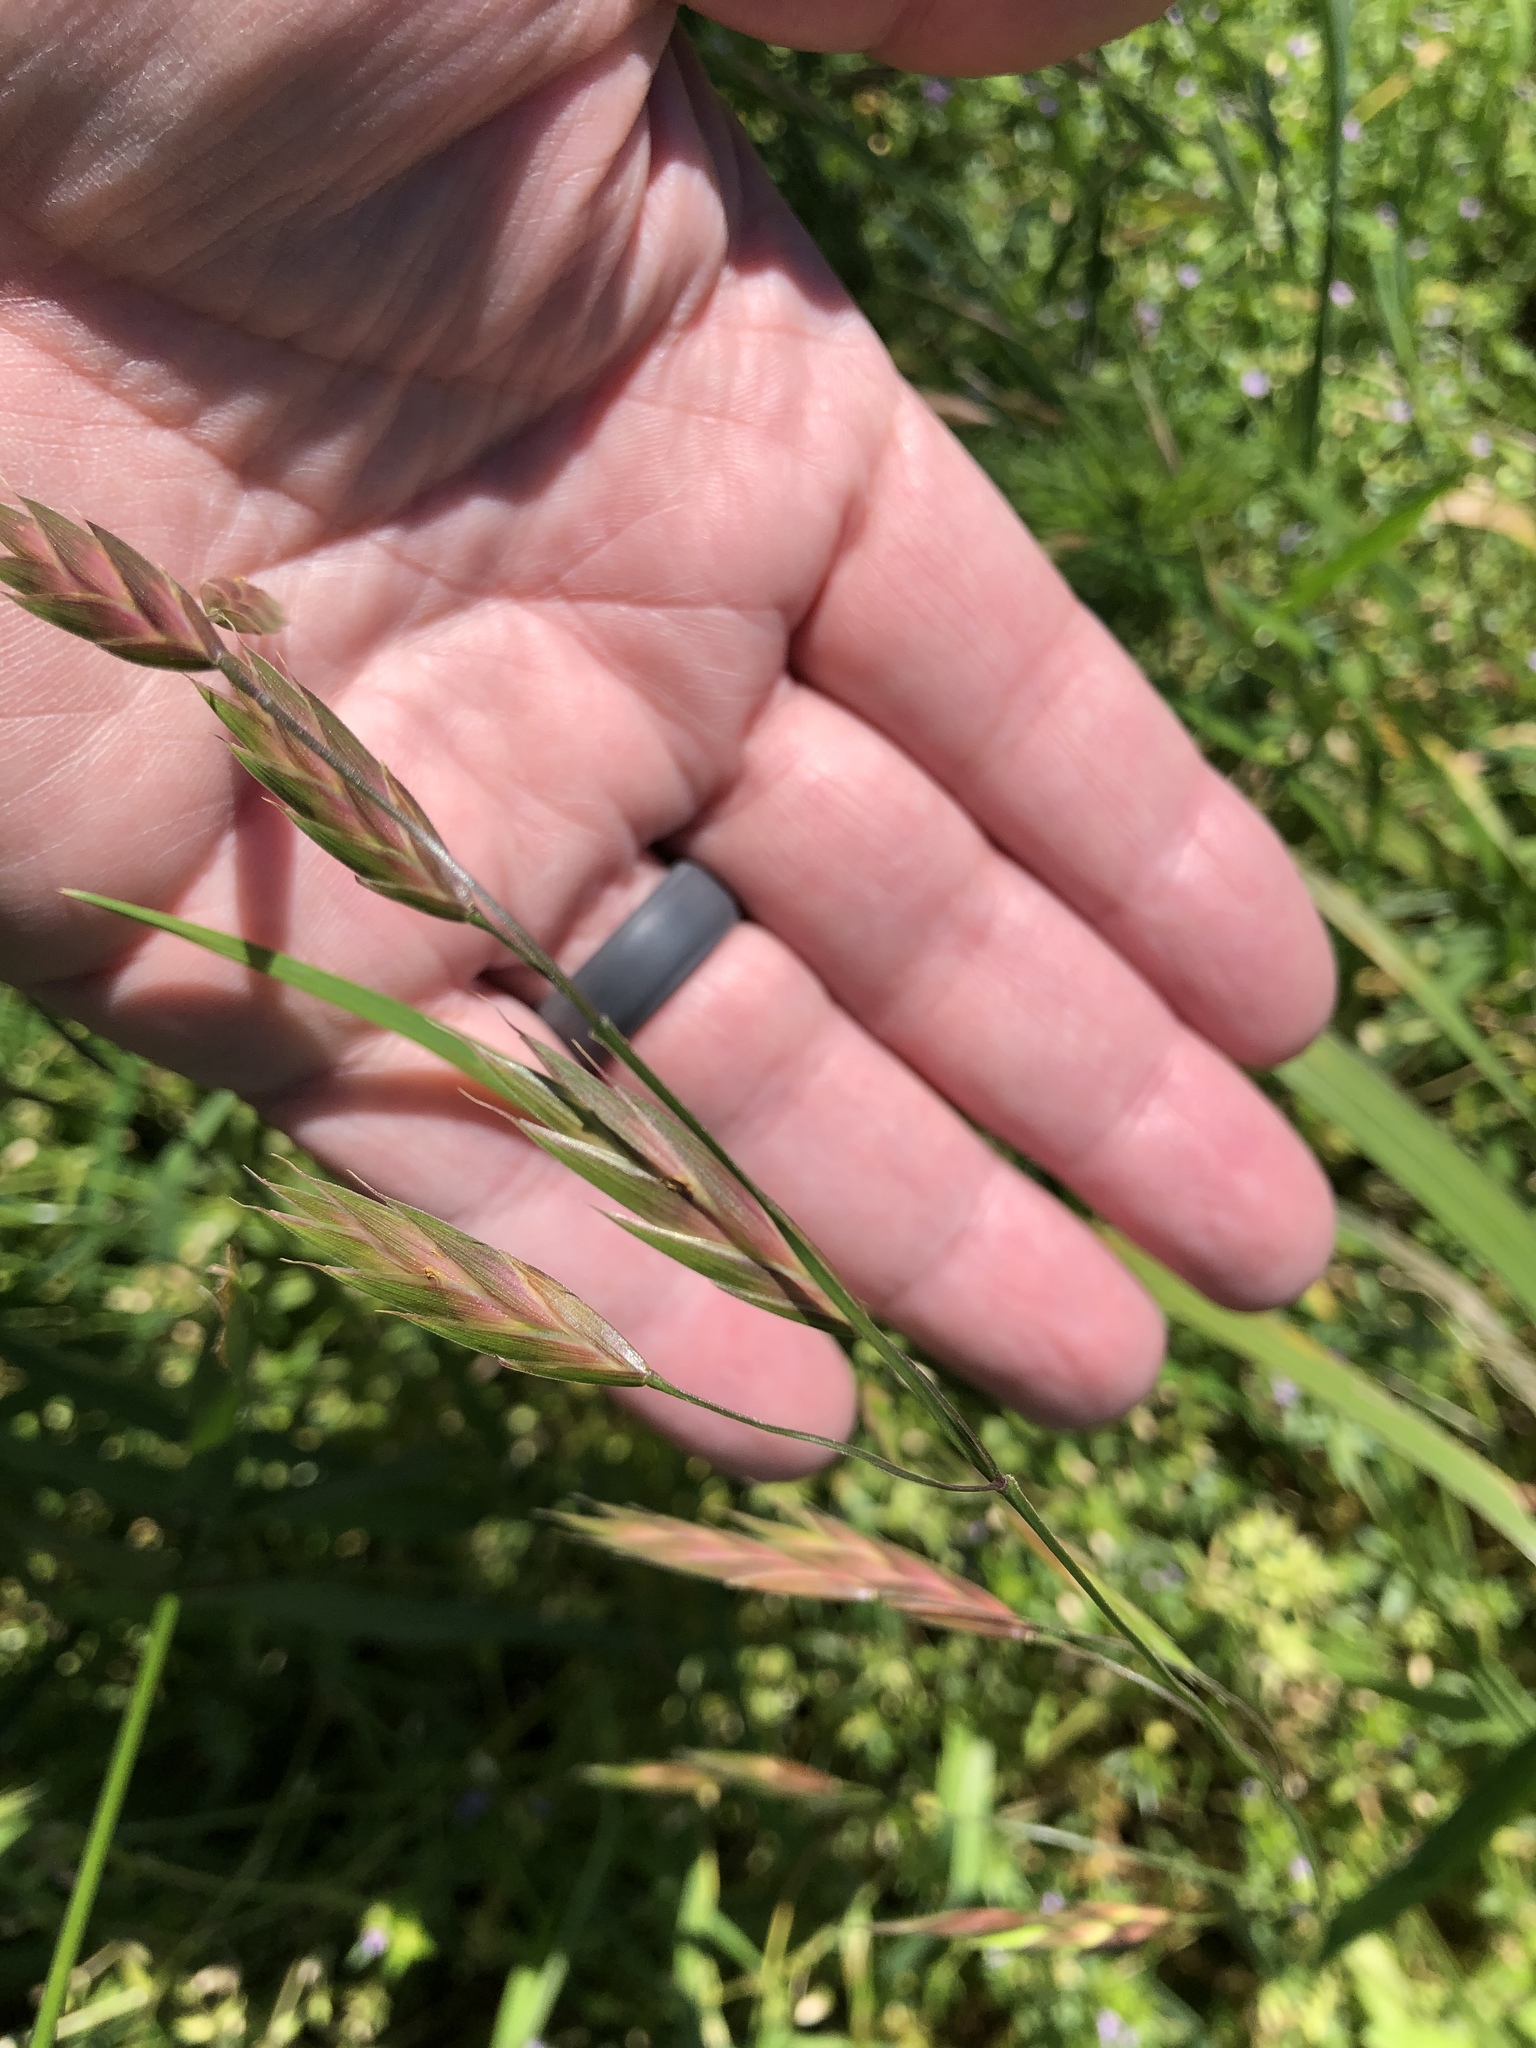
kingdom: Plantae
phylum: Tracheophyta
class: Liliopsida
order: Poales
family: Poaceae
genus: Bromus
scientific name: Bromus catharticus
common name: Rescuegrass
